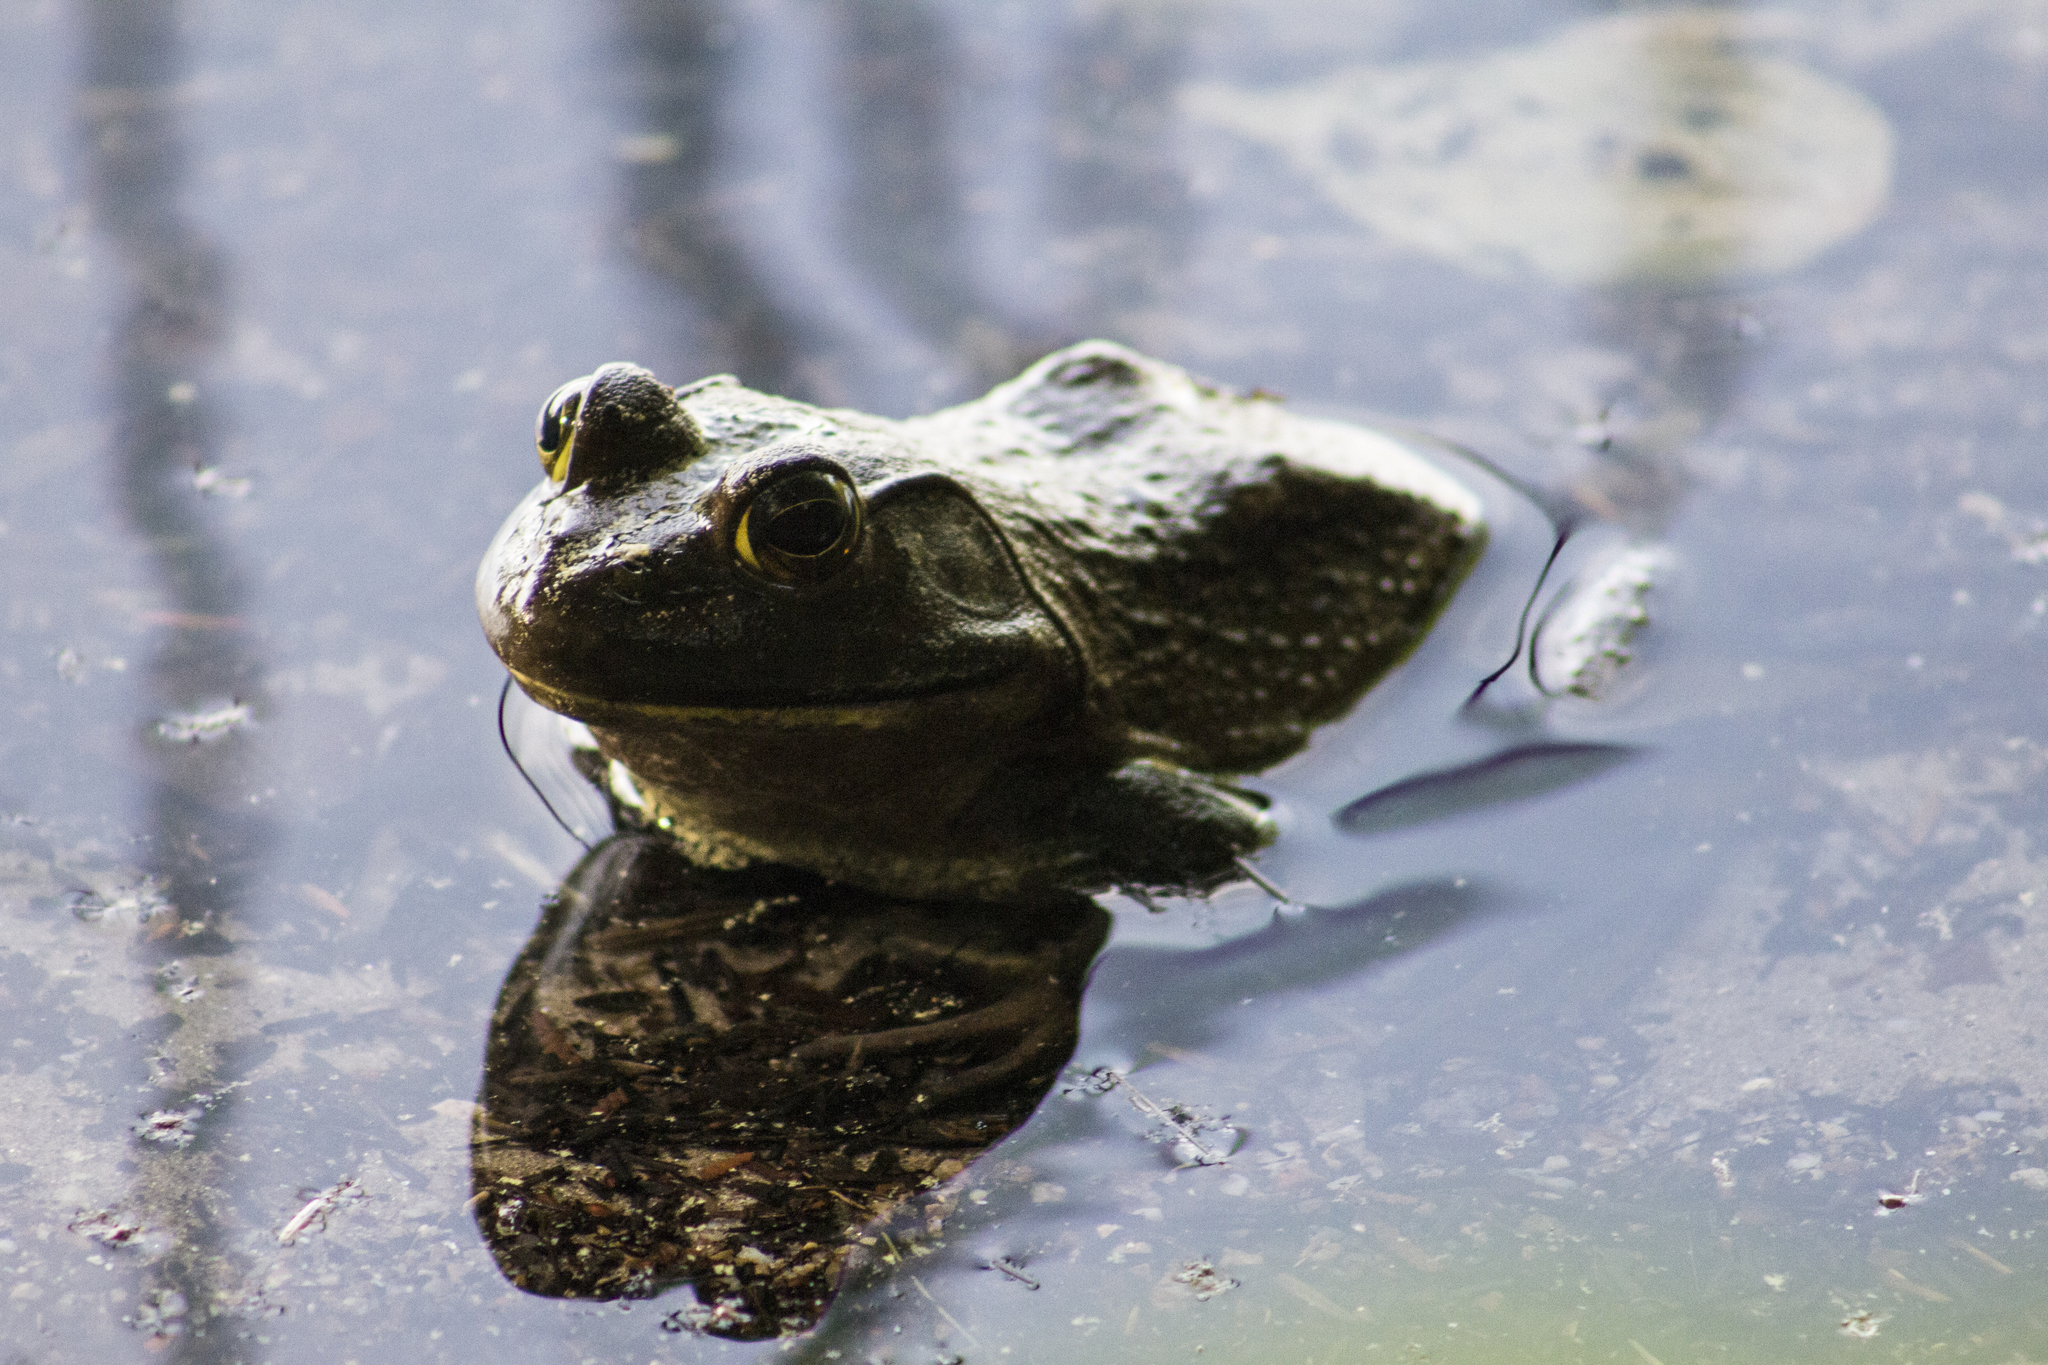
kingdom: Animalia
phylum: Chordata
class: Amphibia
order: Anura
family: Ranidae
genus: Lithobates
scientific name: Lithobates catesbeianus
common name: American bullfrog
